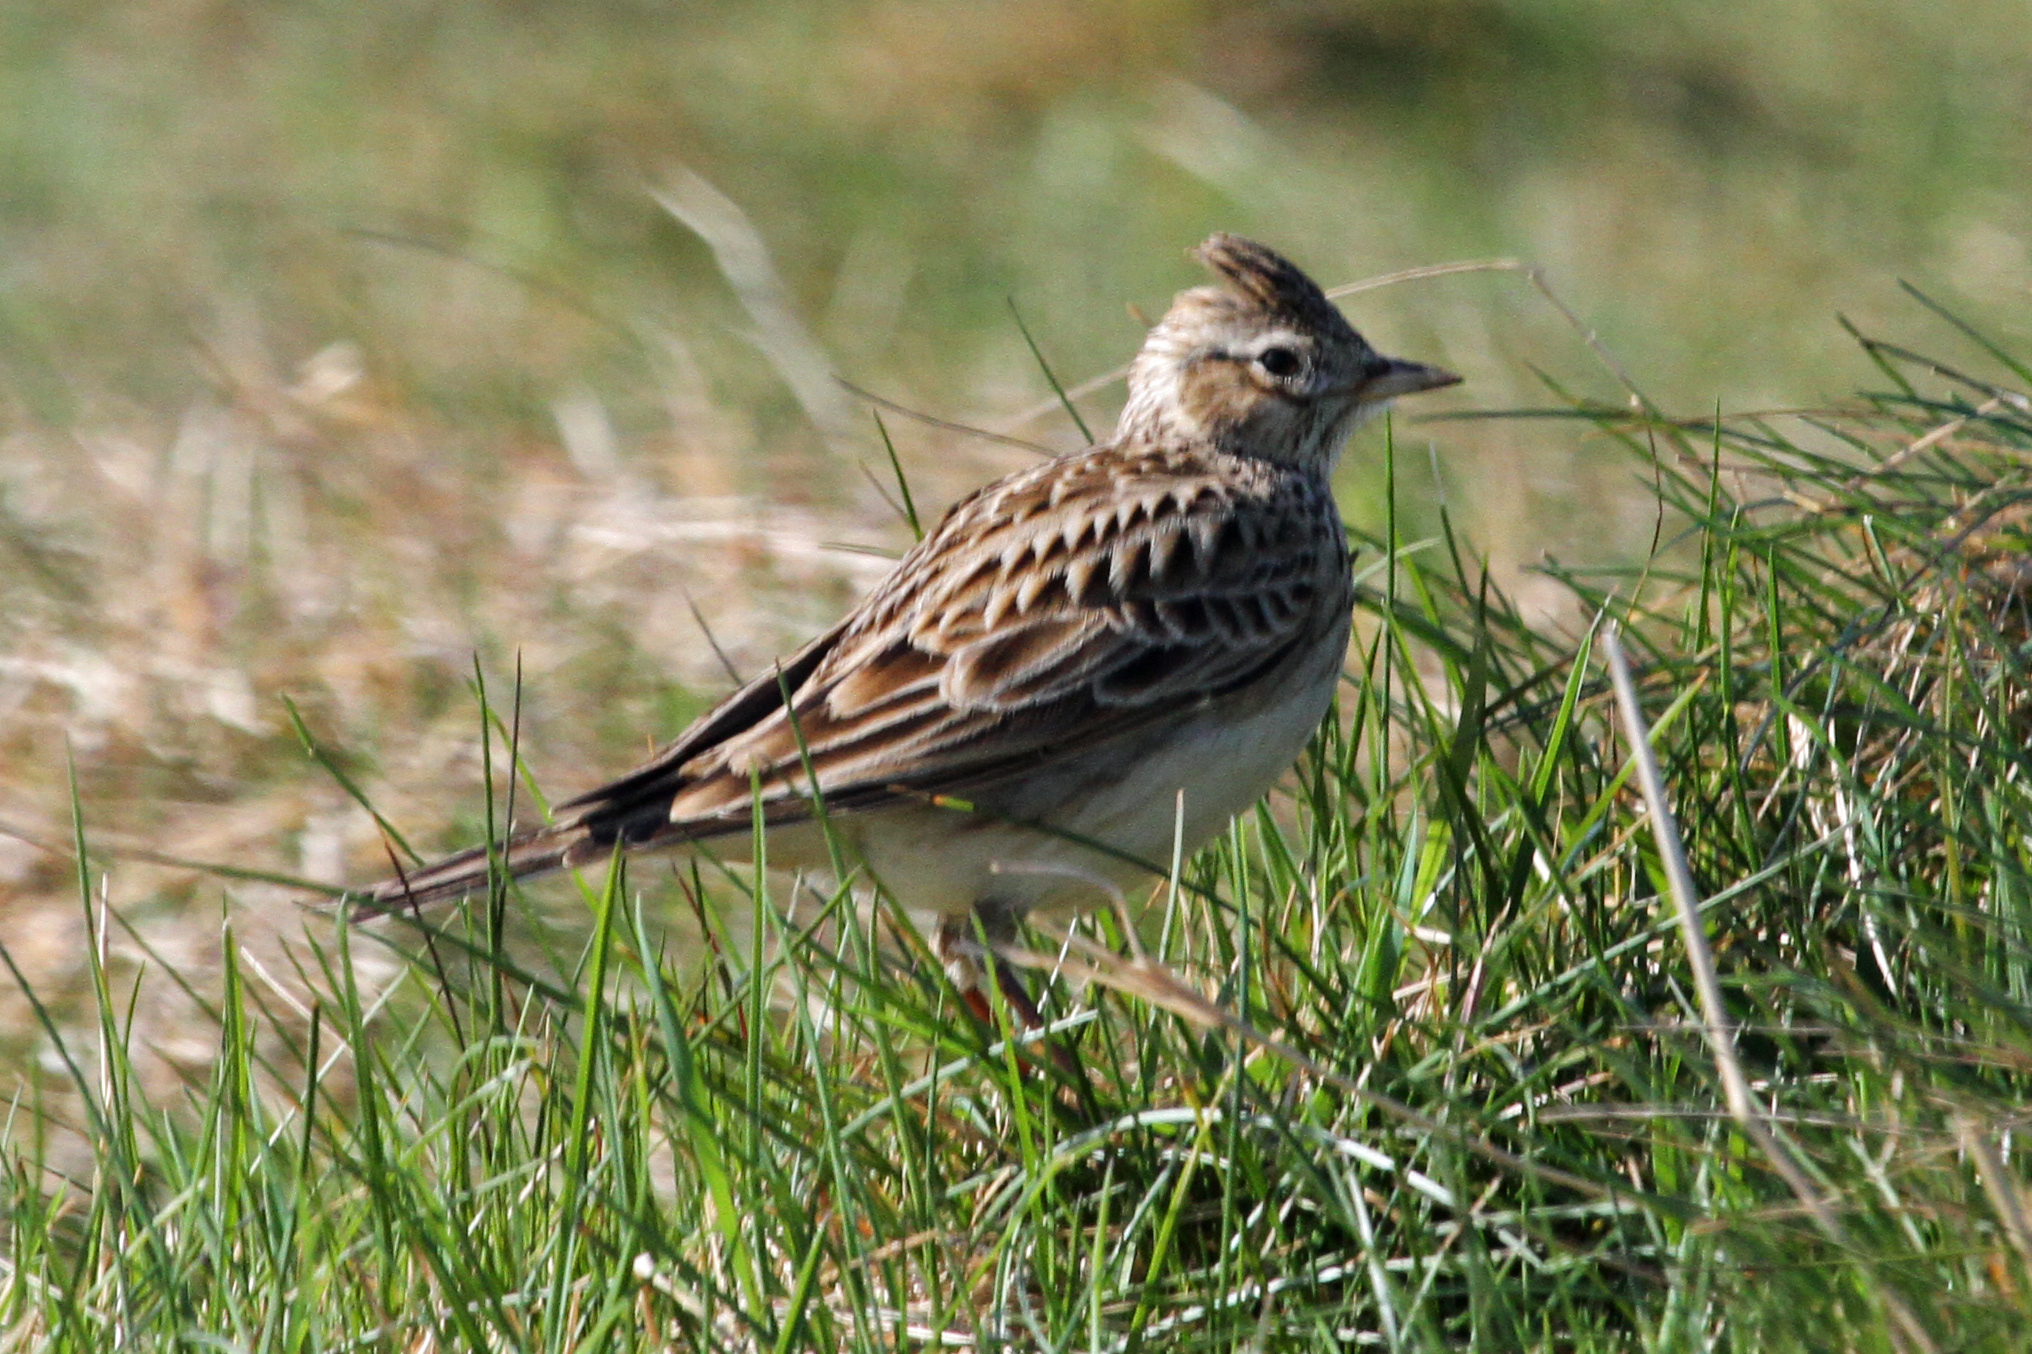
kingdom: Animalia
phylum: Chordata
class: Aves
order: Passeriformes
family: Alaudidae
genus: Alauda
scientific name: Alauda arvensis
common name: Eurasian skylark
